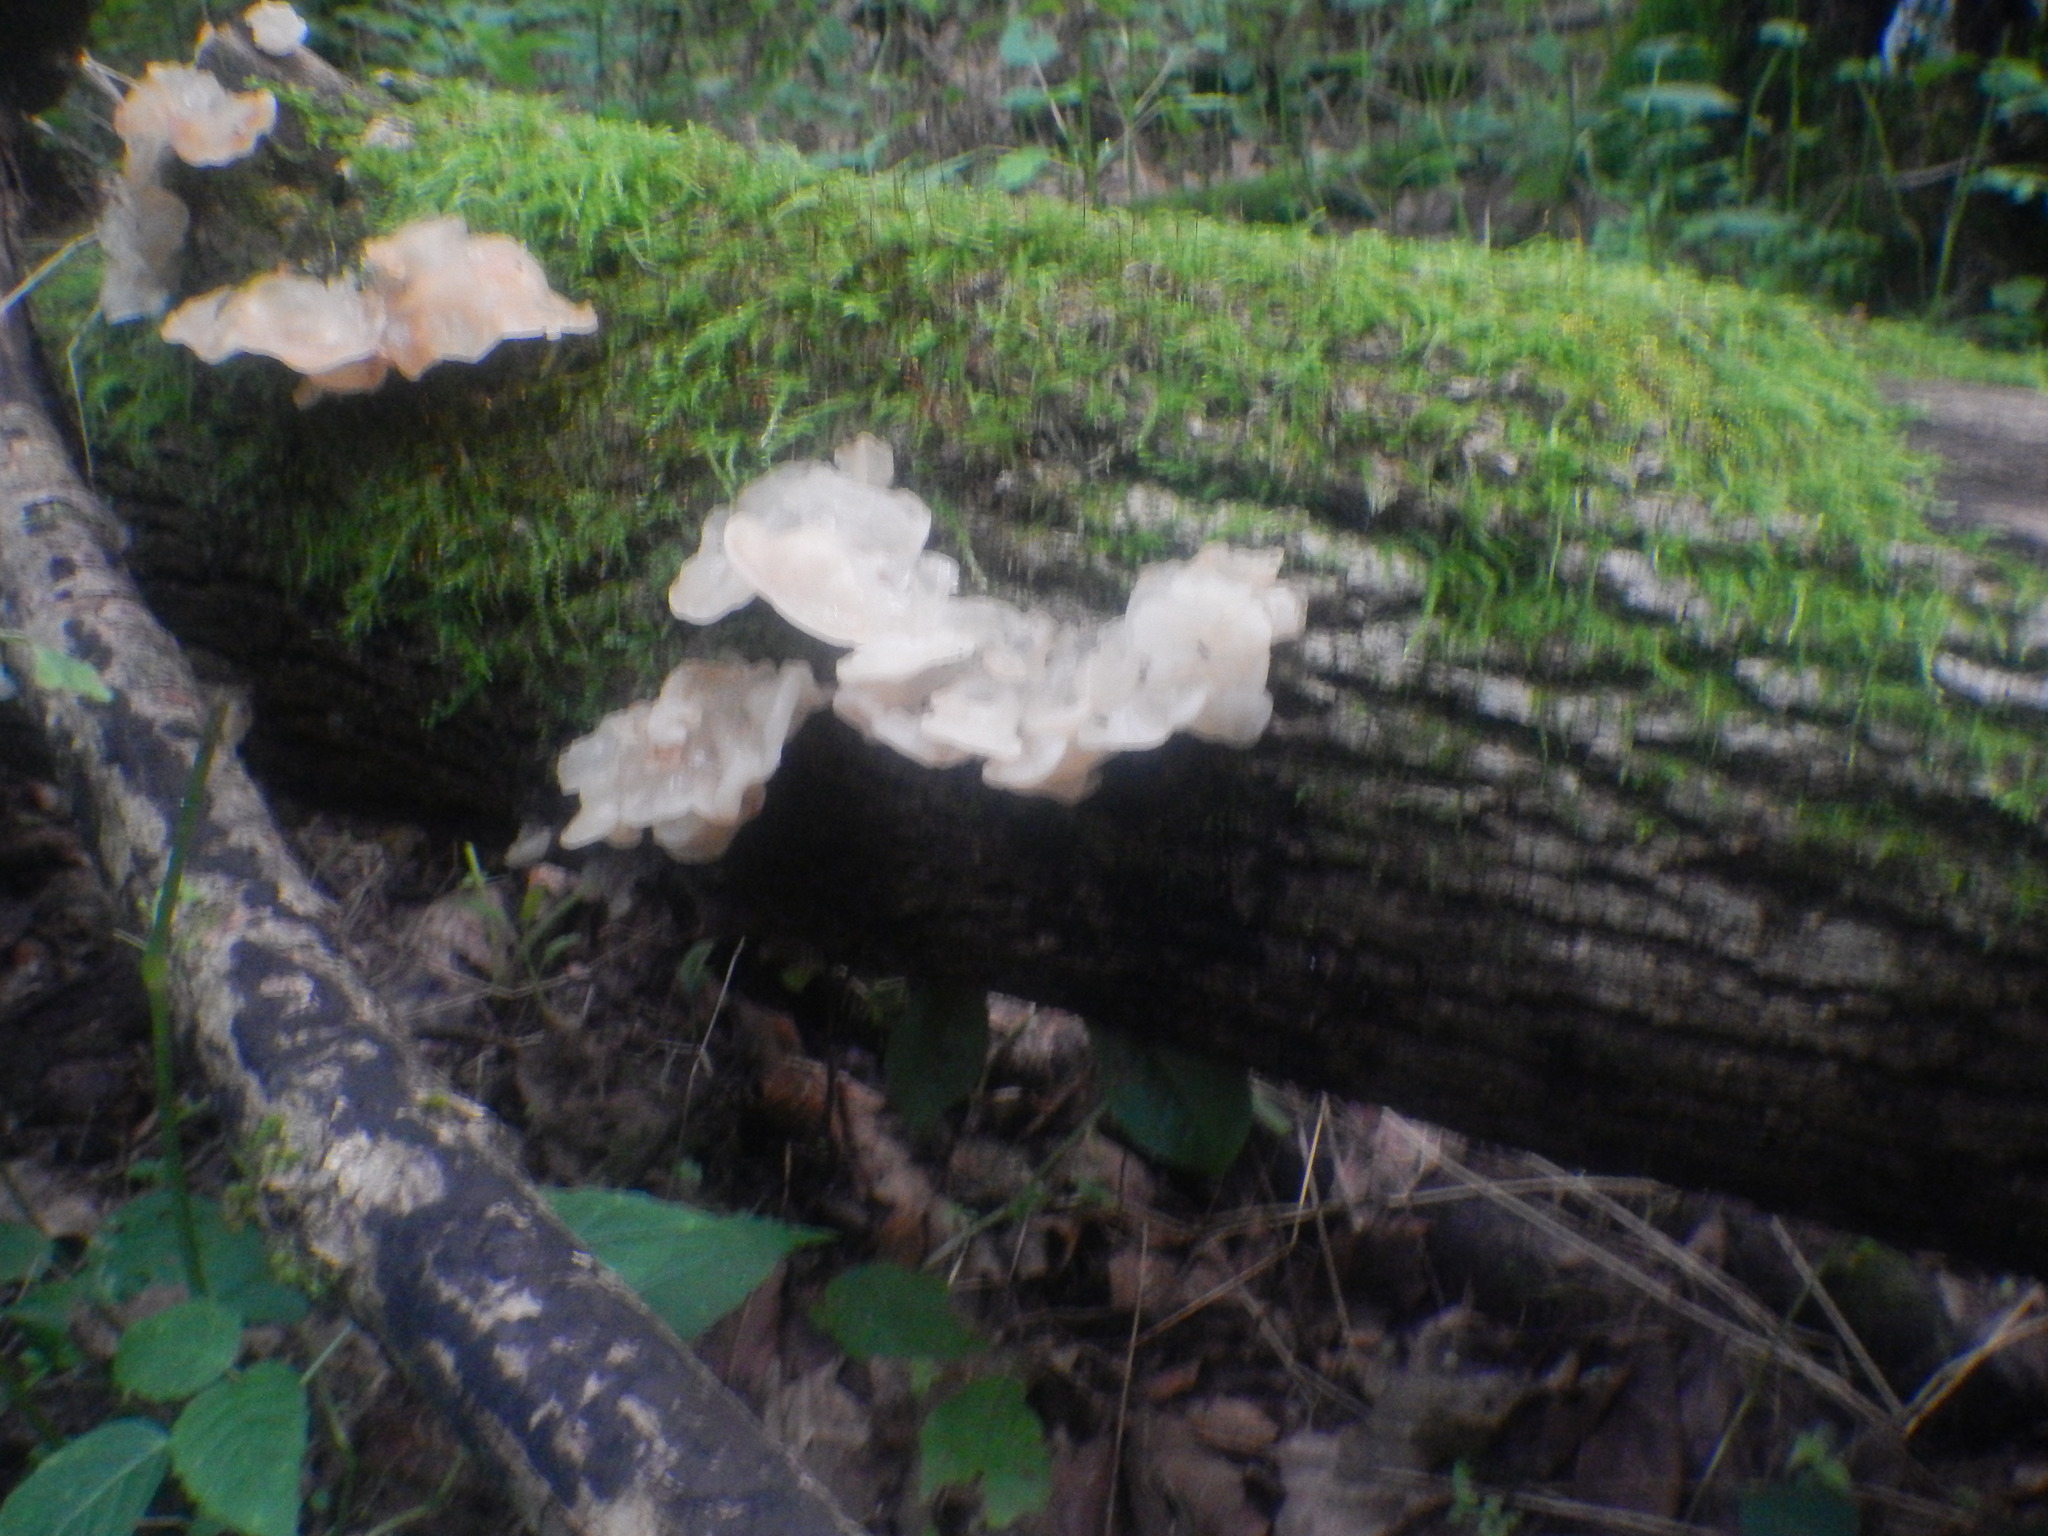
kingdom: Fungi
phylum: Basidiomycota
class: Agaricomycetes
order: Auriculariales
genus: Ductifera
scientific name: Ductifera pululahuana
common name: White jelly fungus
